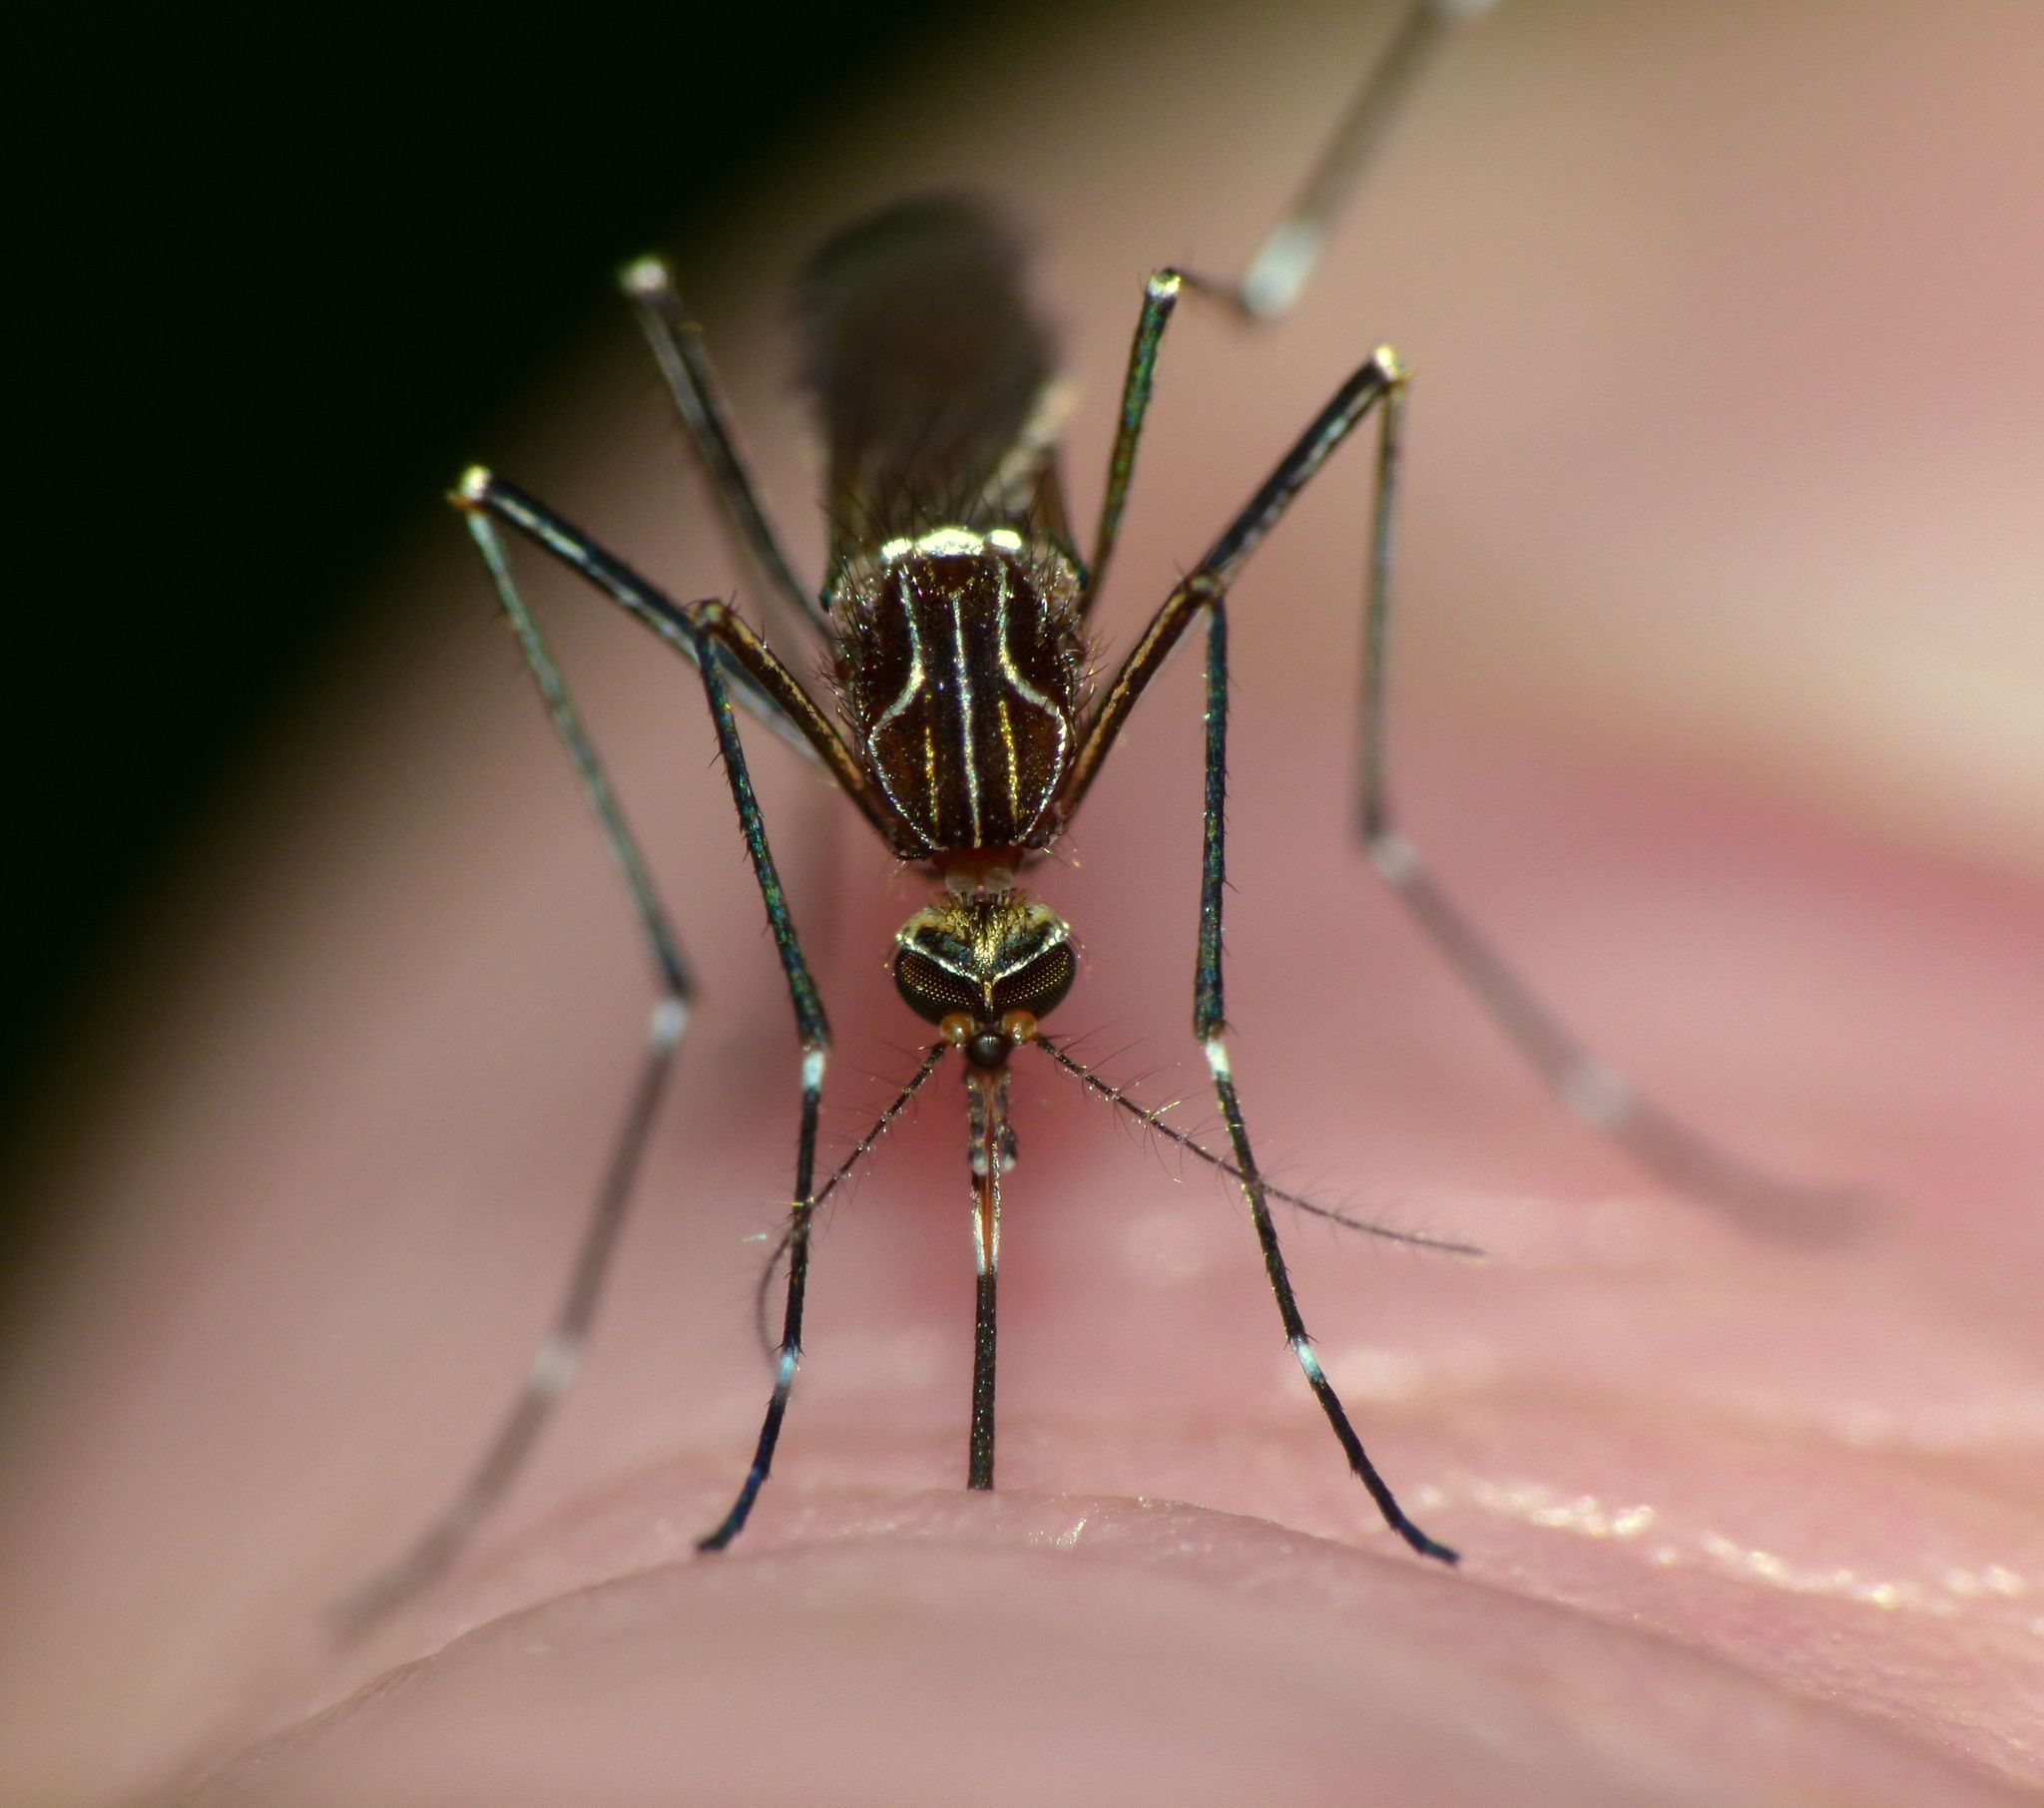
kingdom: Animalia
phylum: Arthropoda
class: Insecta
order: Diptera
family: Culicidae
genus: Aedes
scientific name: Aedes notoscriptus
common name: Australian backyard mosquito
